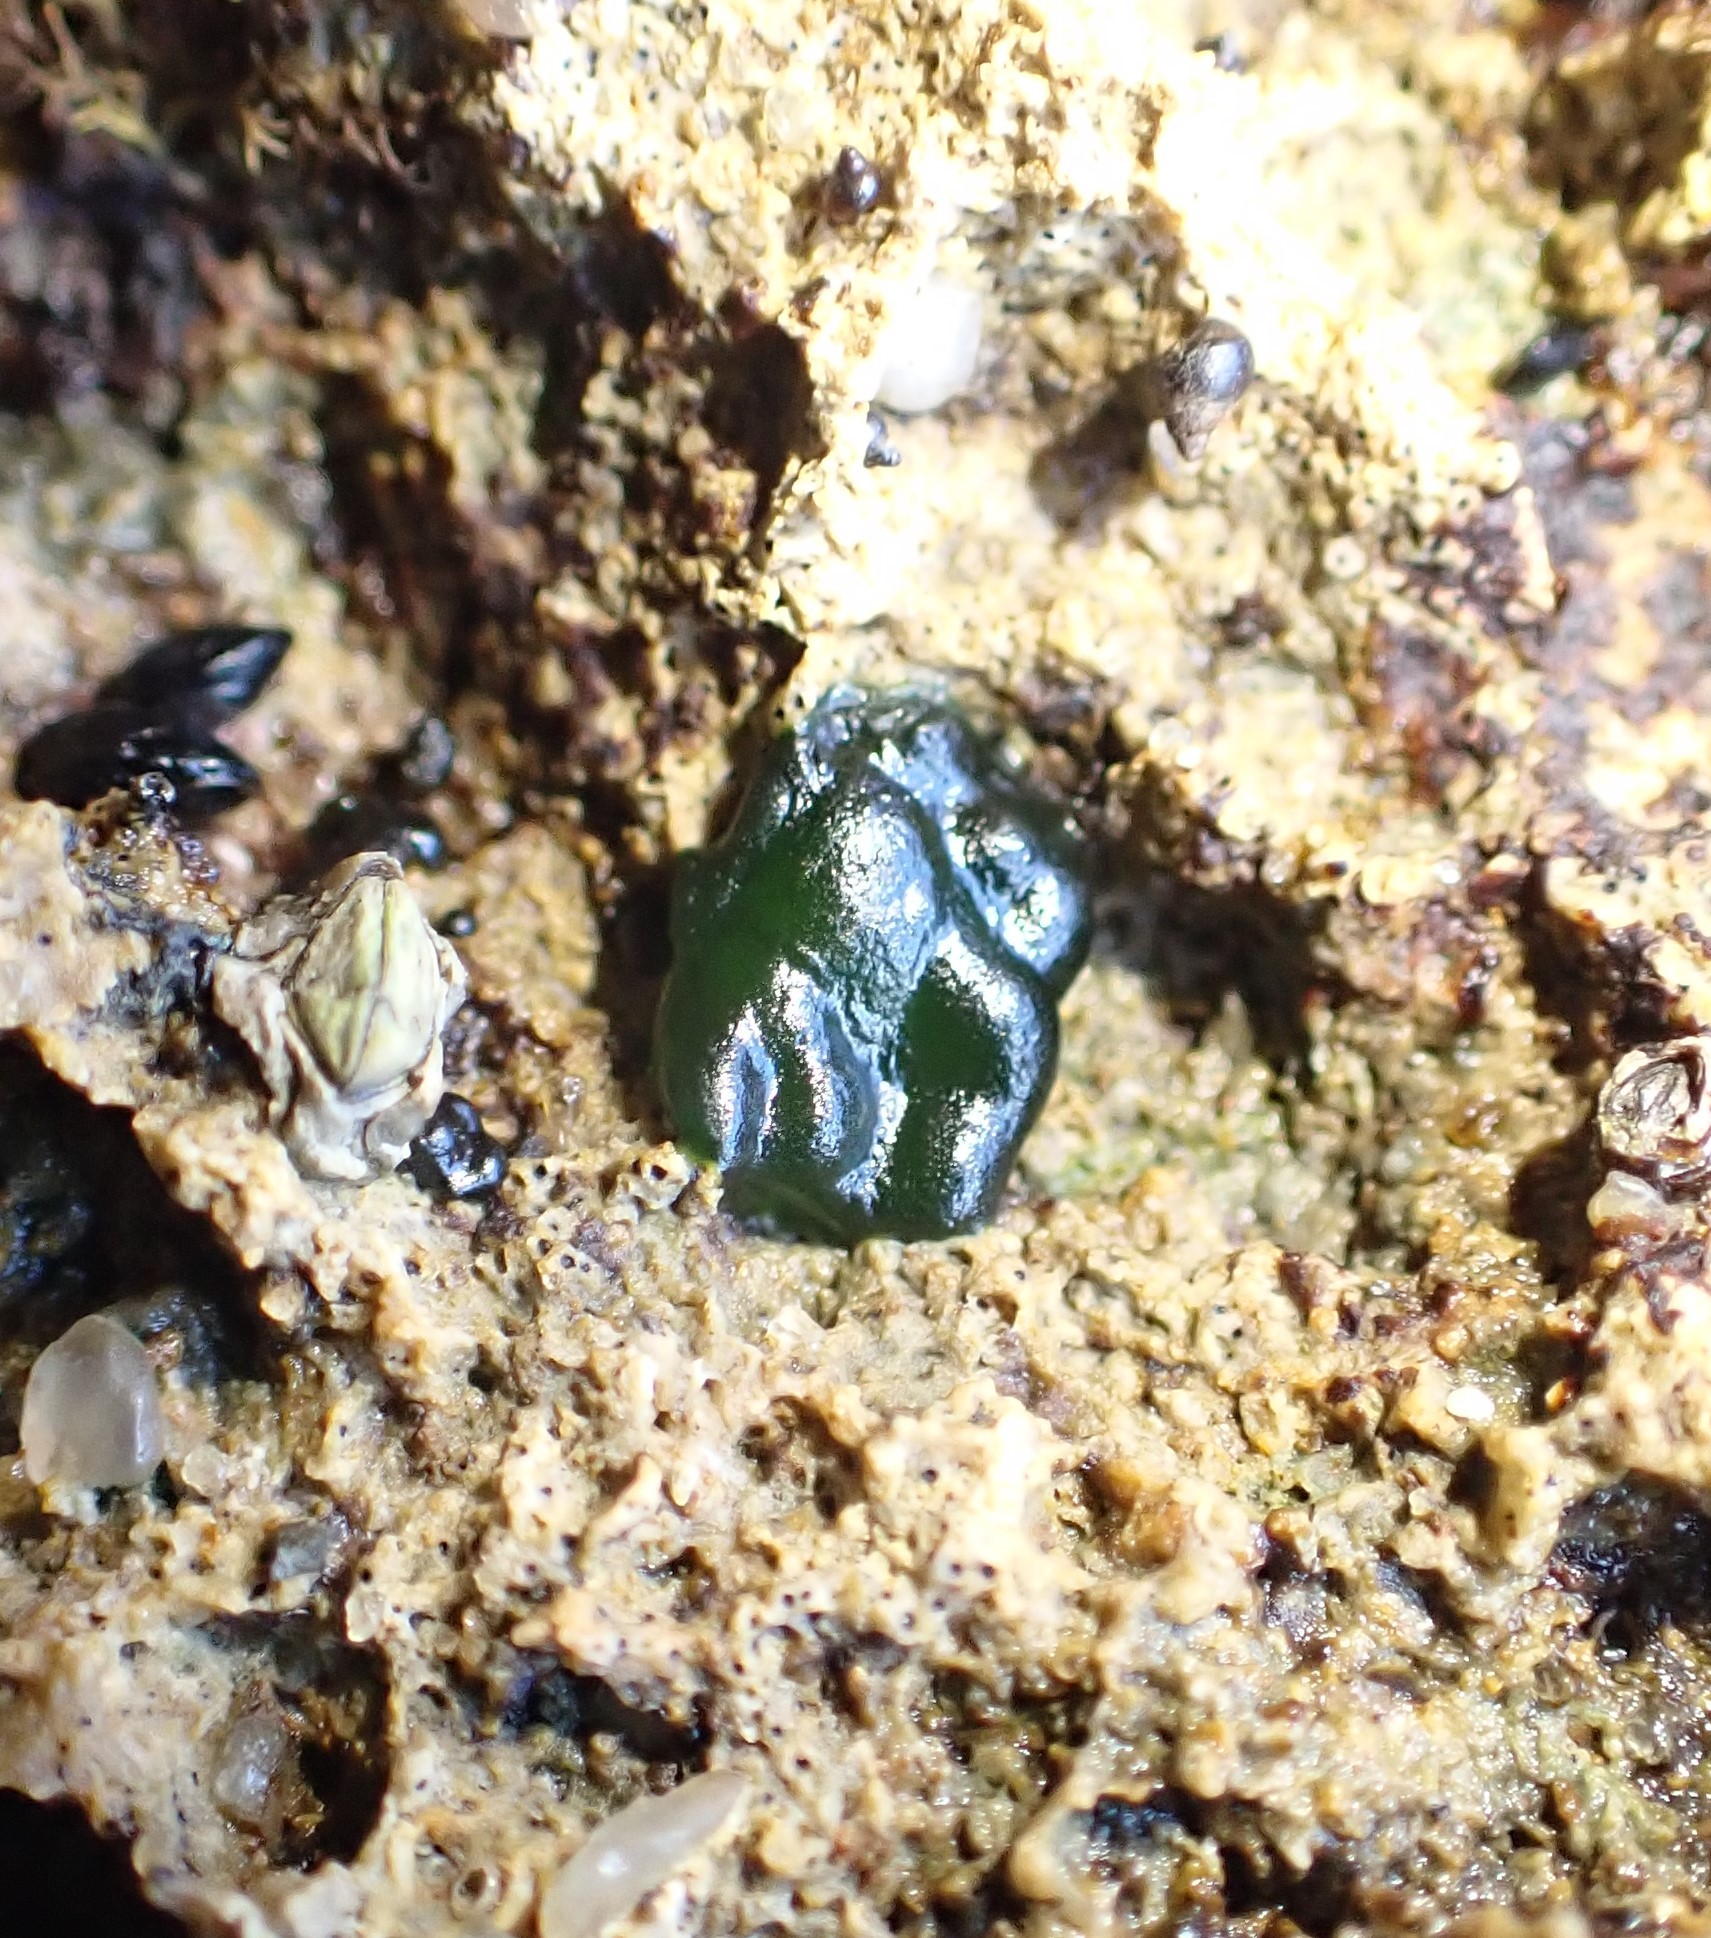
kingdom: Bacteria
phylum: Cyanobacteria
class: Cyanobacteriia
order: Cyanobacteriales
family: Rivulariaceae
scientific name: Rivulariaceae
